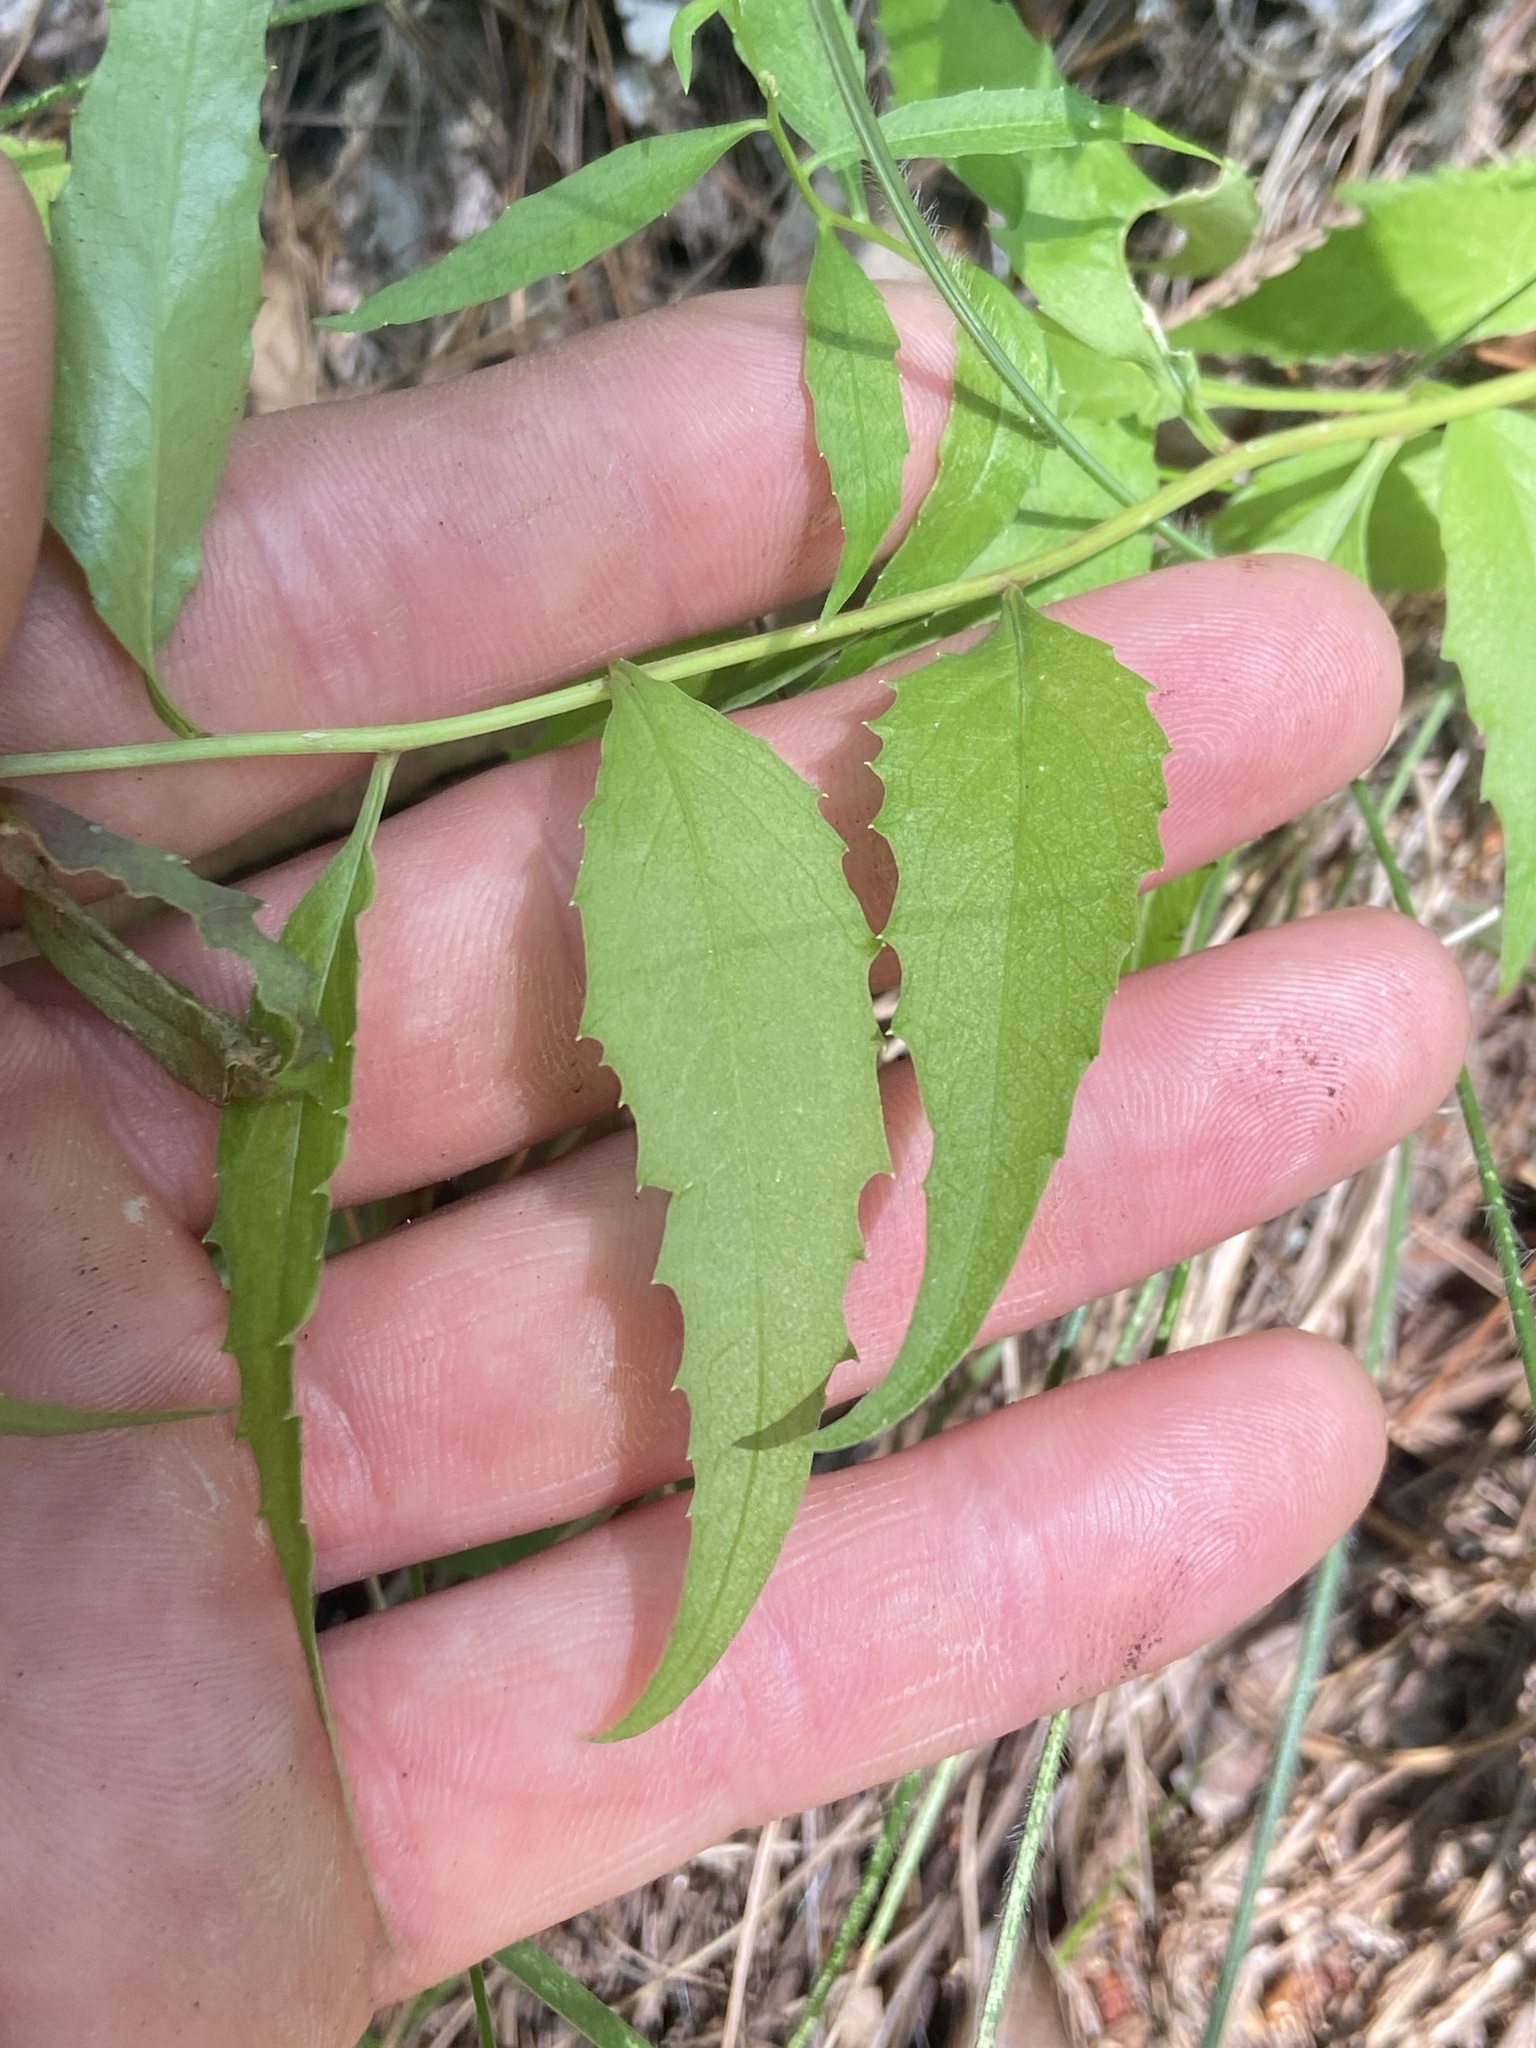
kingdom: Plantae
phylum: Tracheophyta
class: Magnoliopsida
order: Asterales
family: Campanulaceae
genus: Campanula
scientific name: Campanula divaricata
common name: Appalachian bellflower
